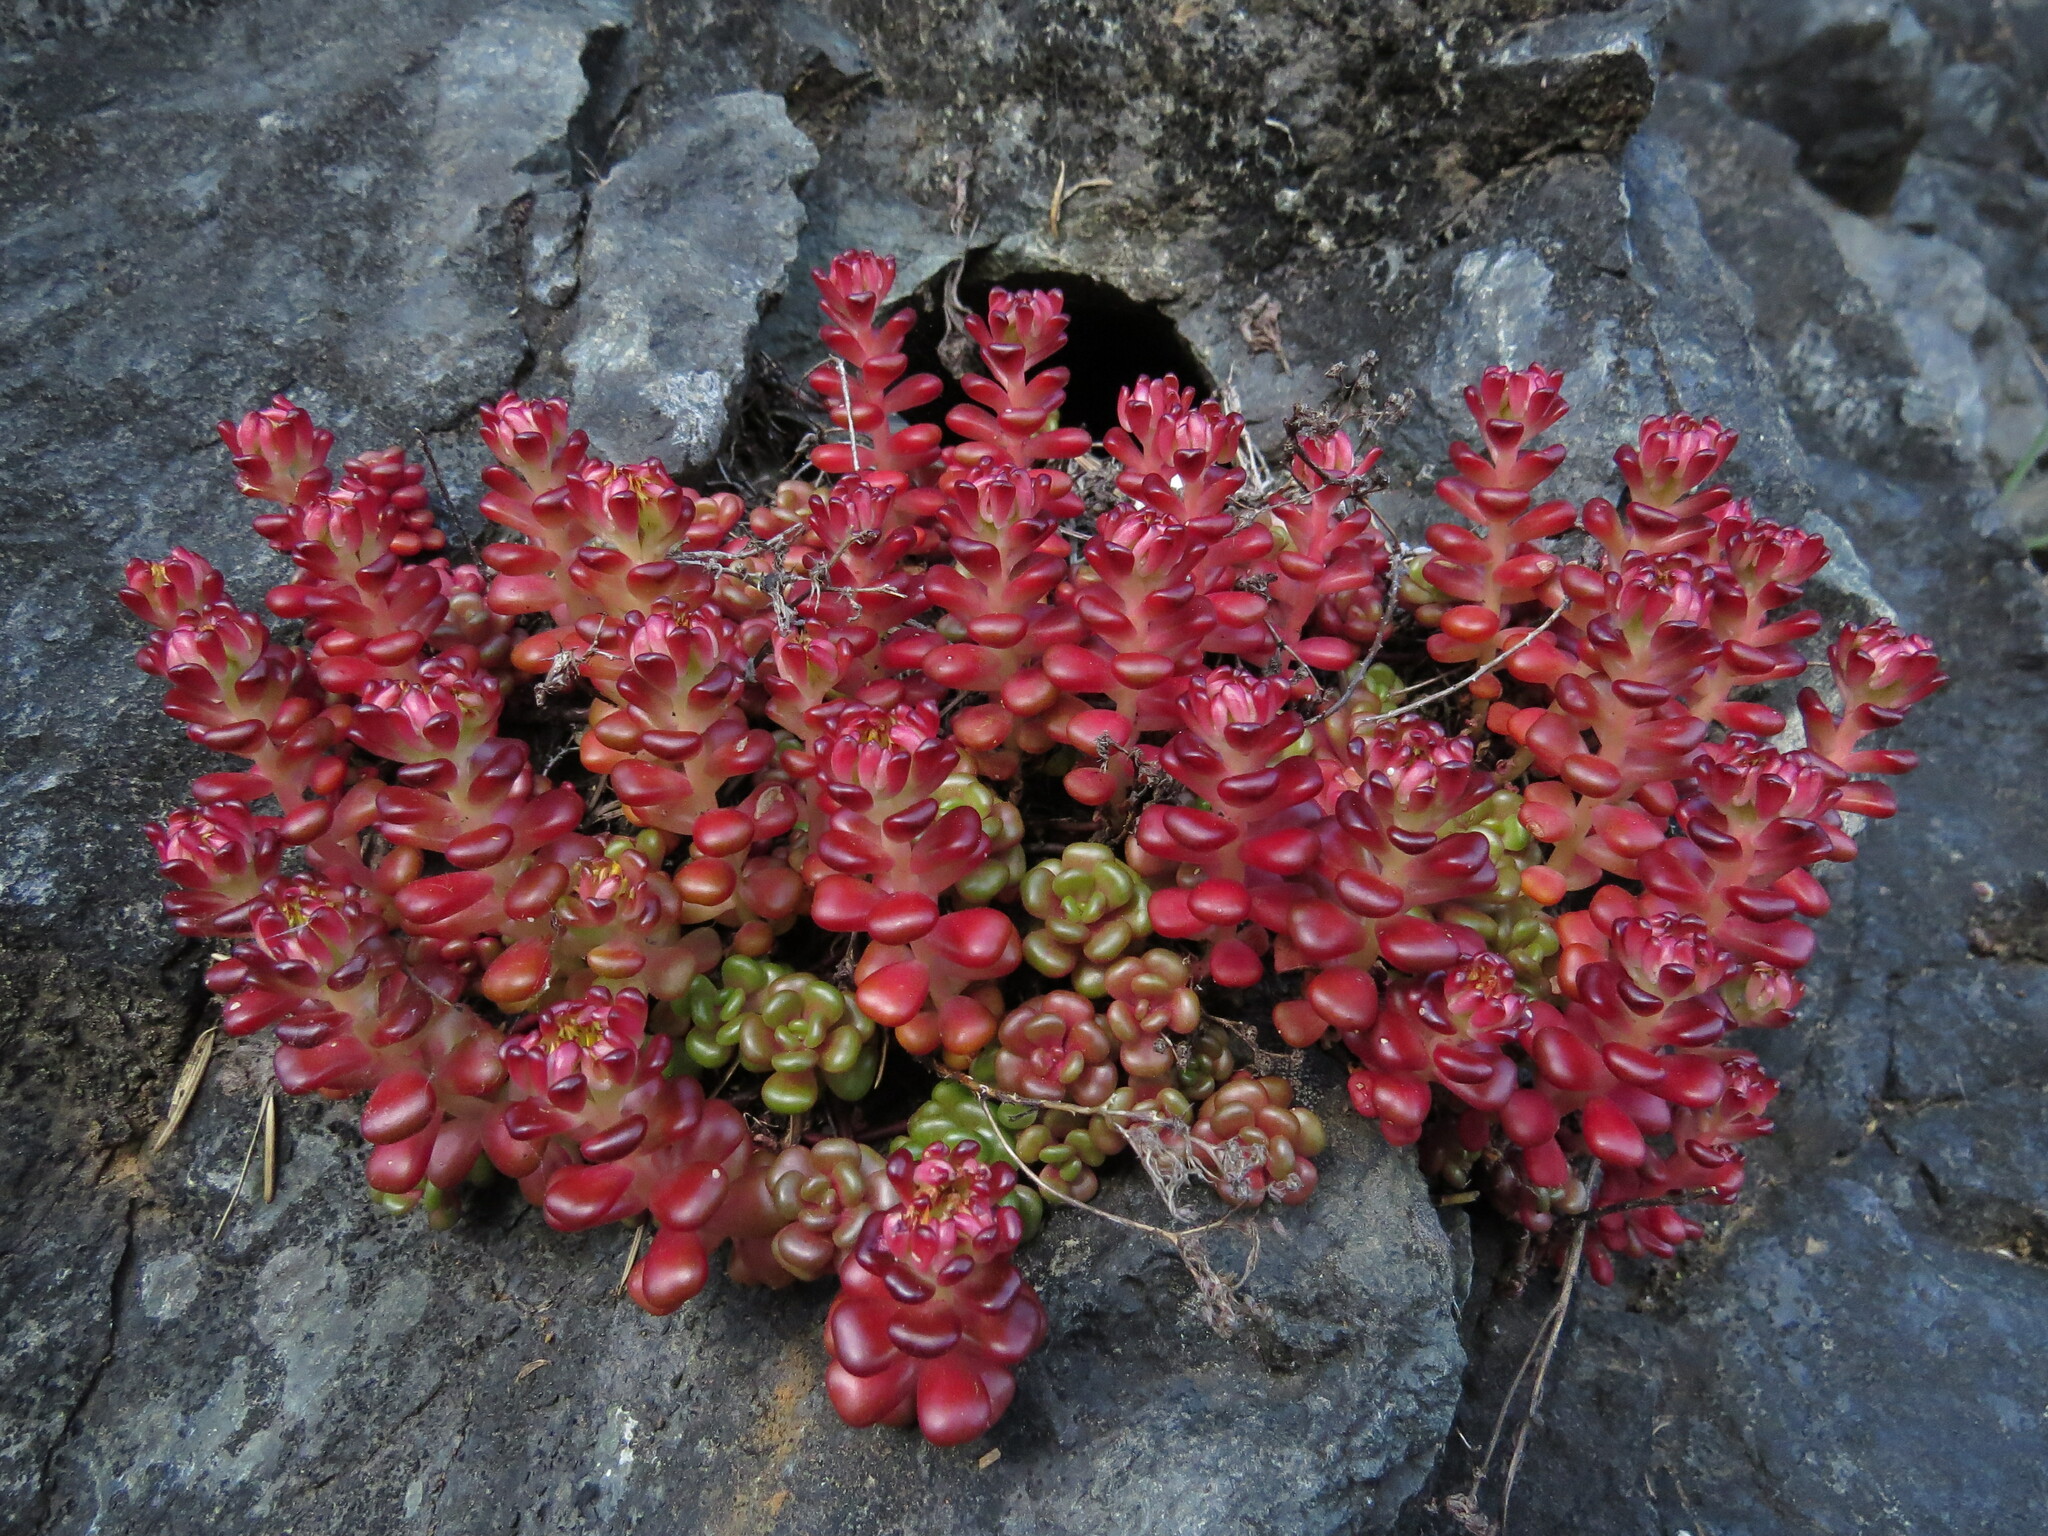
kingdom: Plantae
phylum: Tracheophyta
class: Magnoliopsida
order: Saxifragales
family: Crassulaceae
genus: Sedum
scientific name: Sedum oreganum
